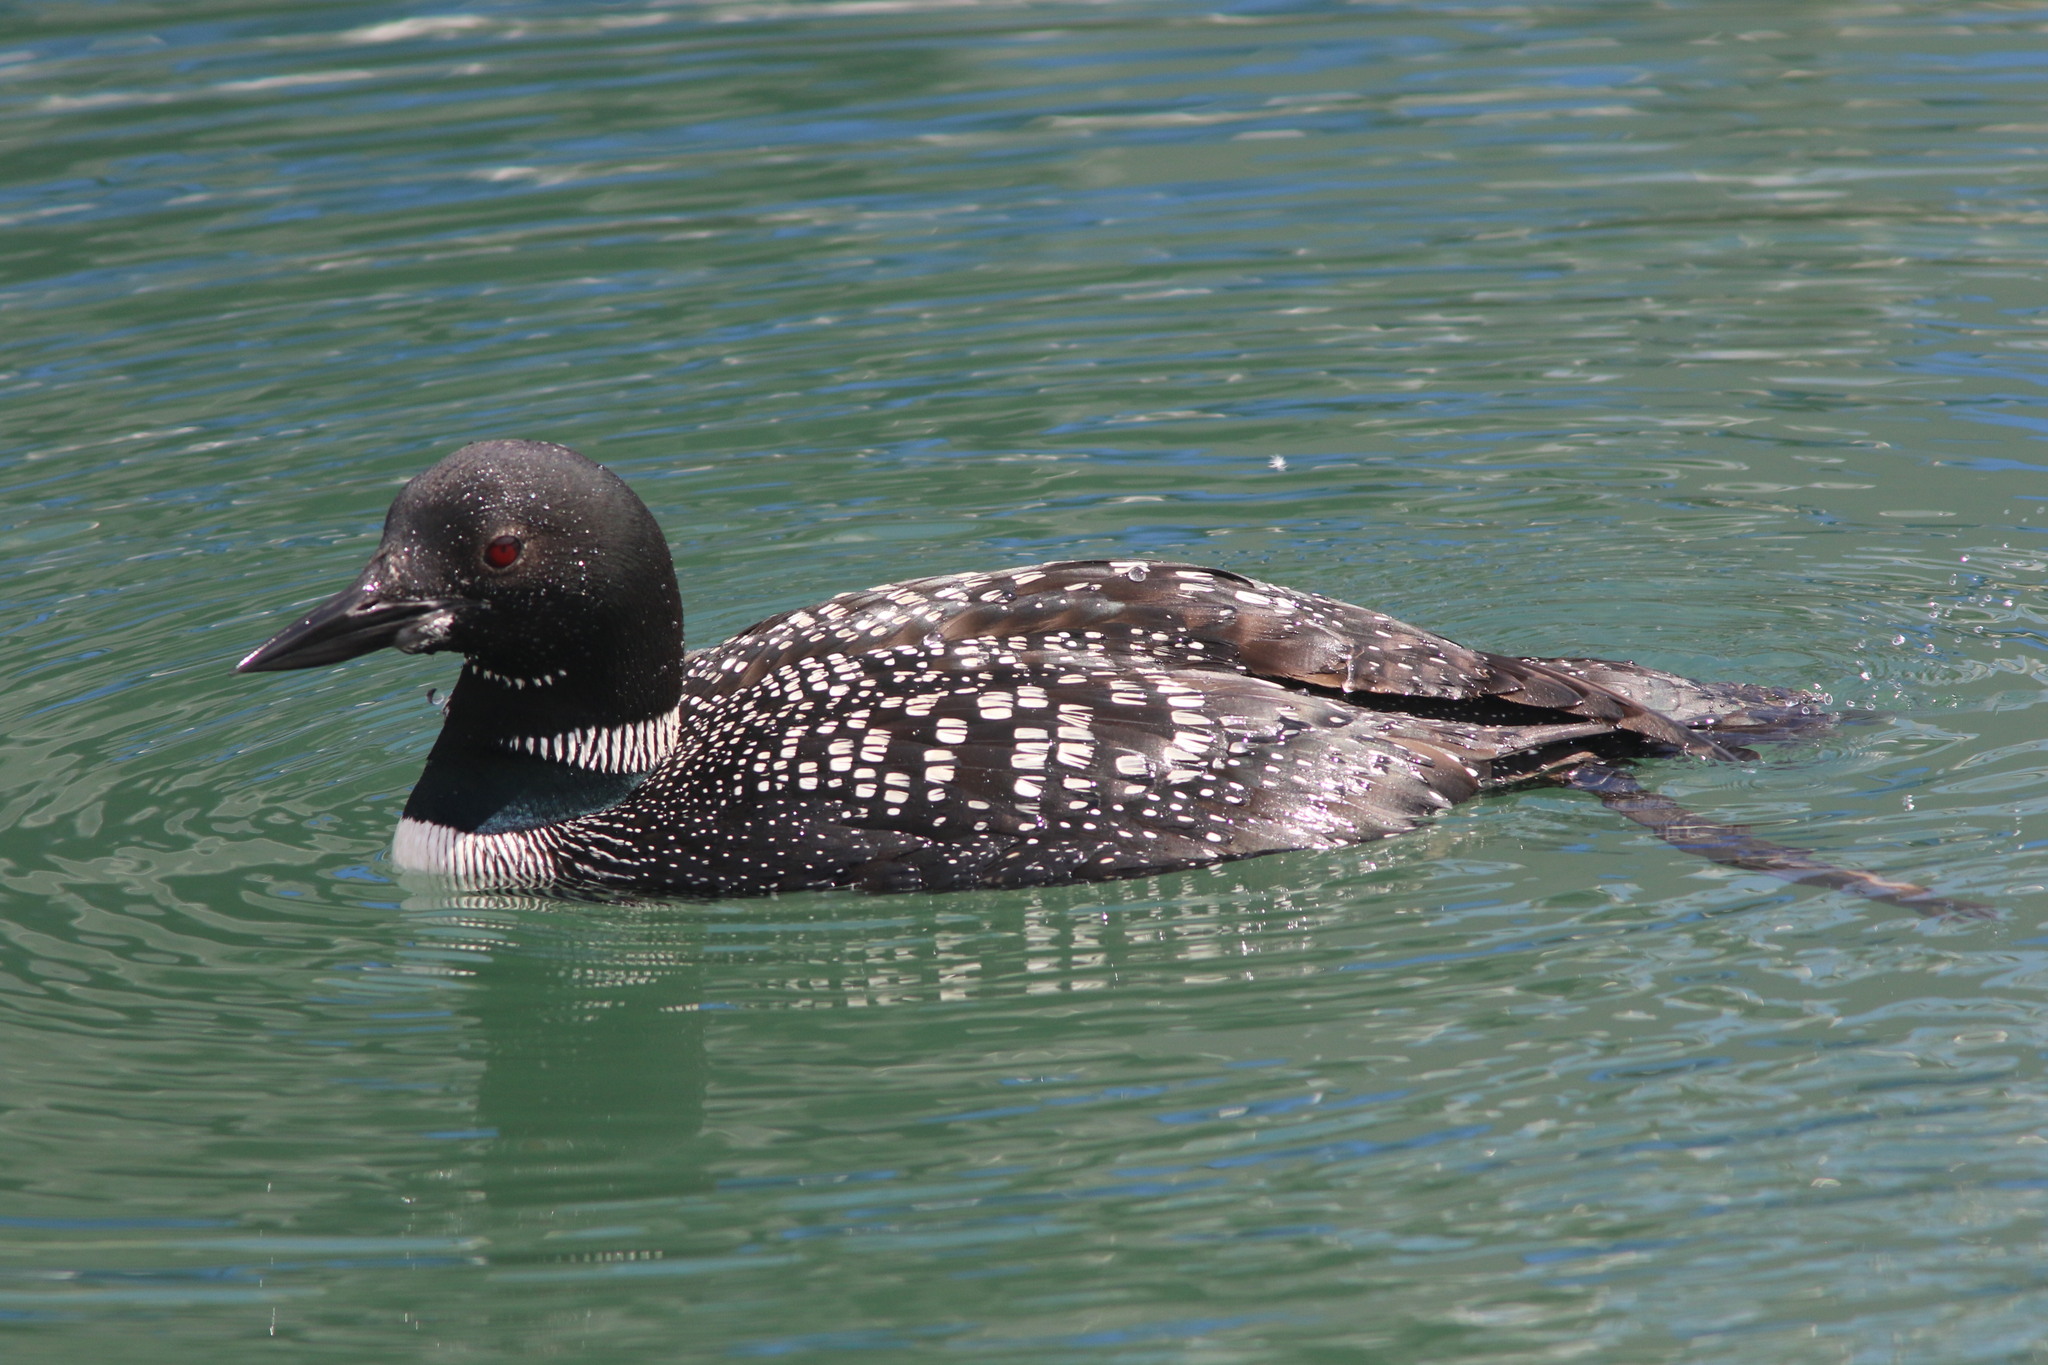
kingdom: Animalia
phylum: Chordata
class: Aves
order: Gaviiformes
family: Gaviidae
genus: Gavia
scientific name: Gavia immer
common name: Common loon
